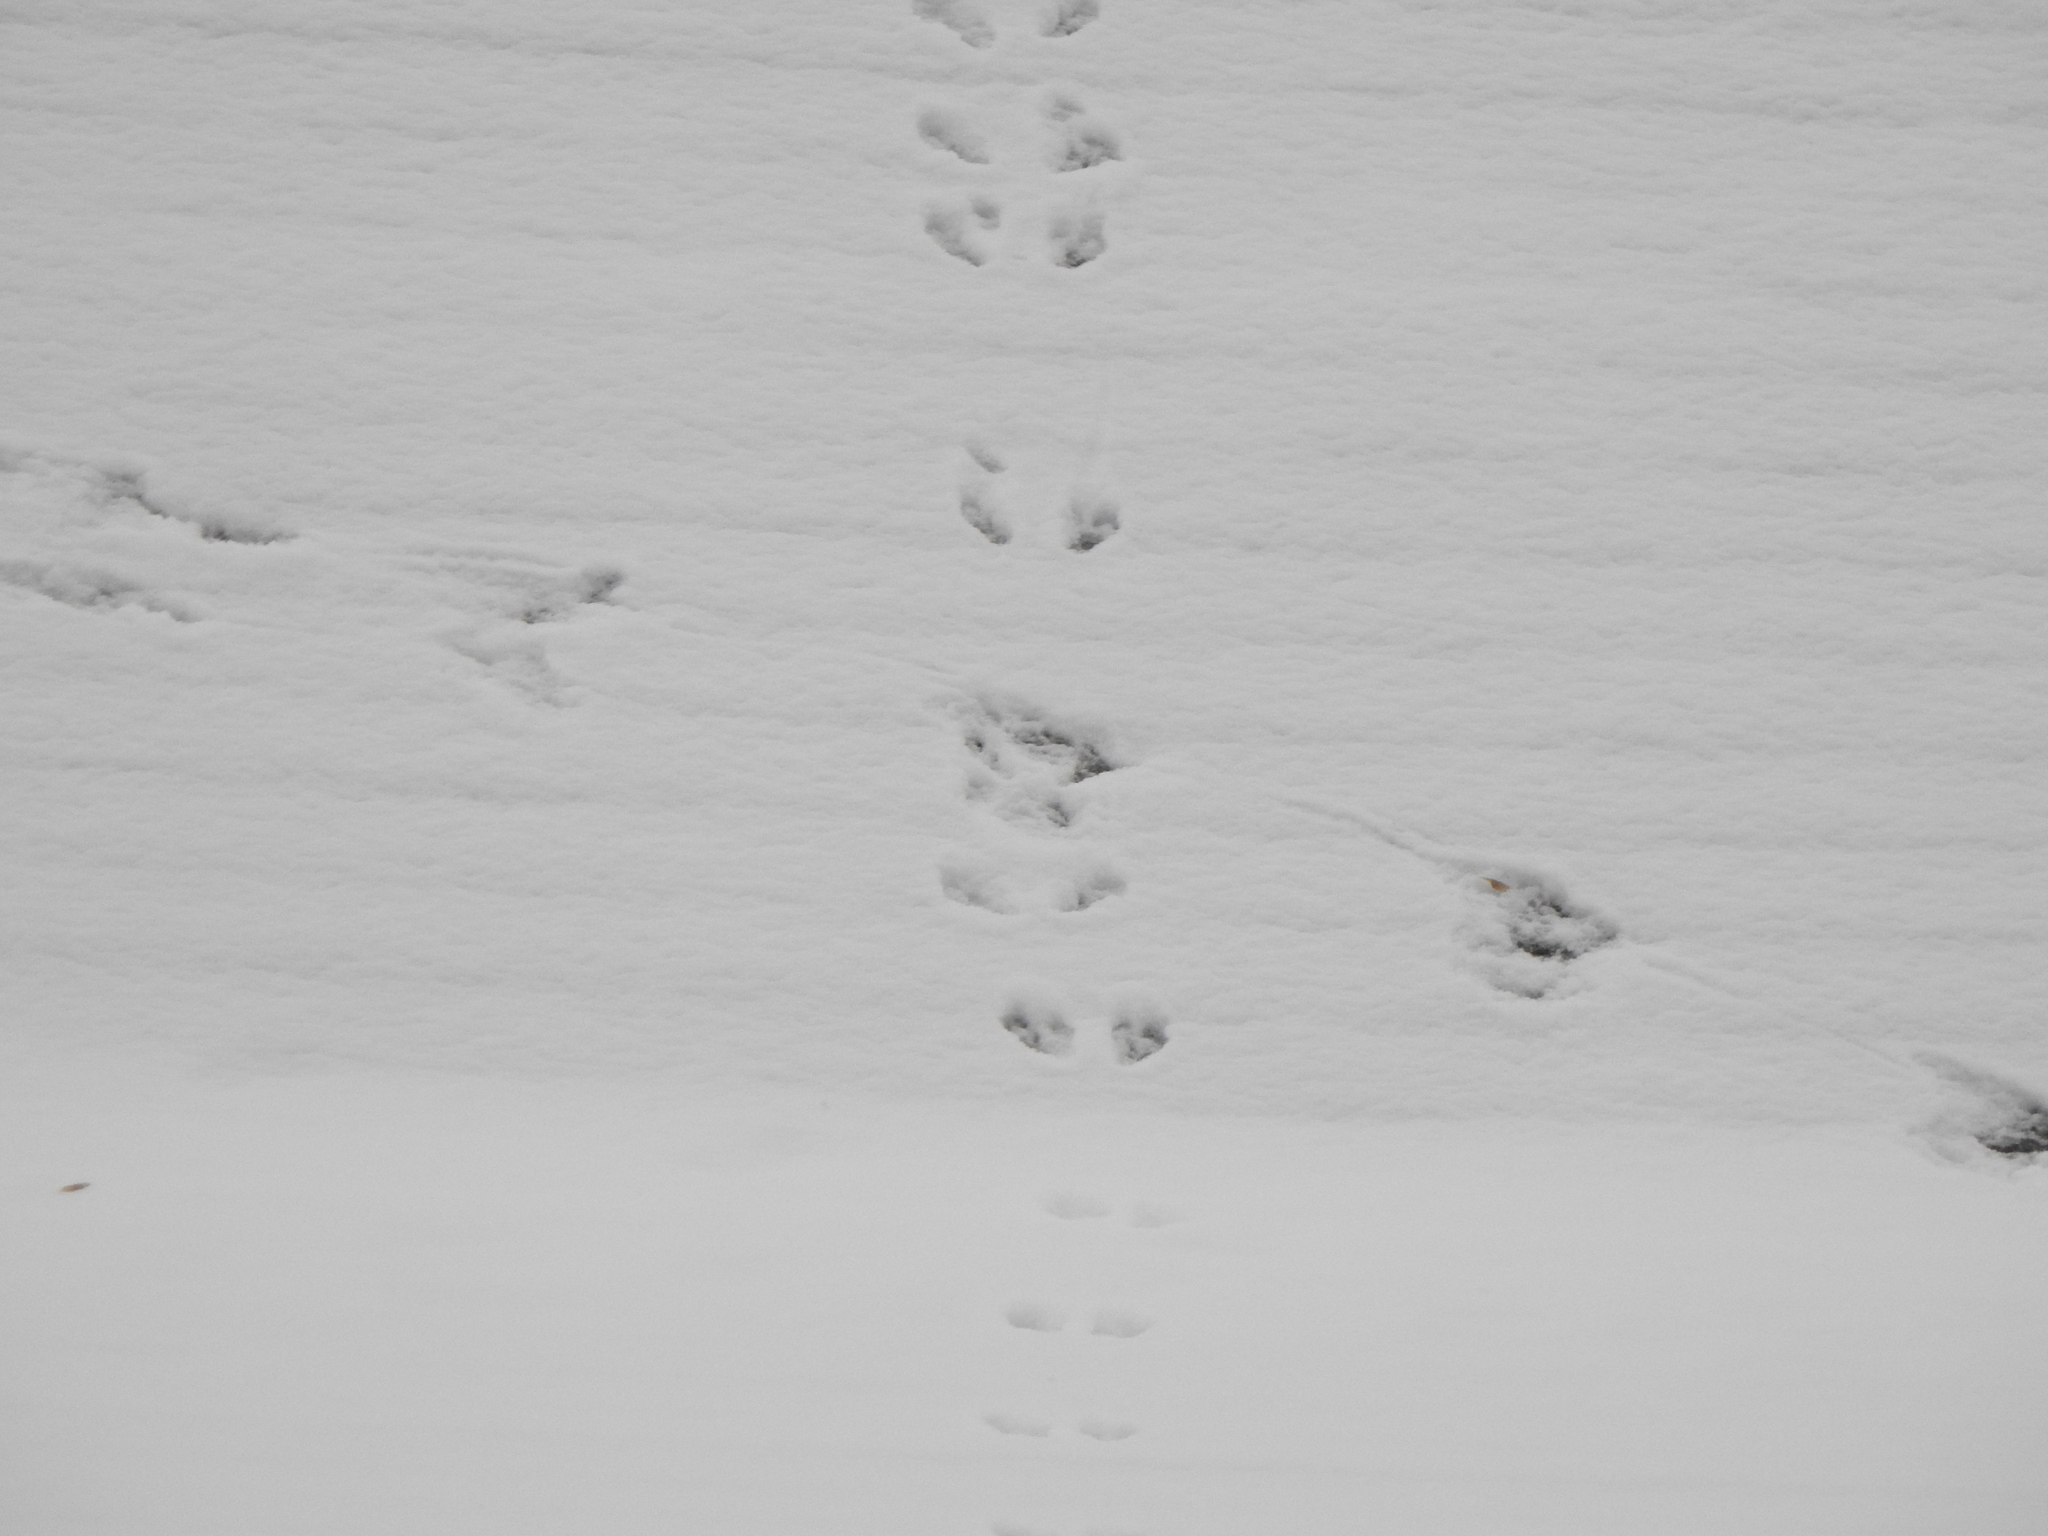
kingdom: Animalia
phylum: Chordata
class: Mammalia
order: Rodentia
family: Sciuridae
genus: Sciurus
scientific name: Sciurus carolinensis
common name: Eastern gray squirrel
